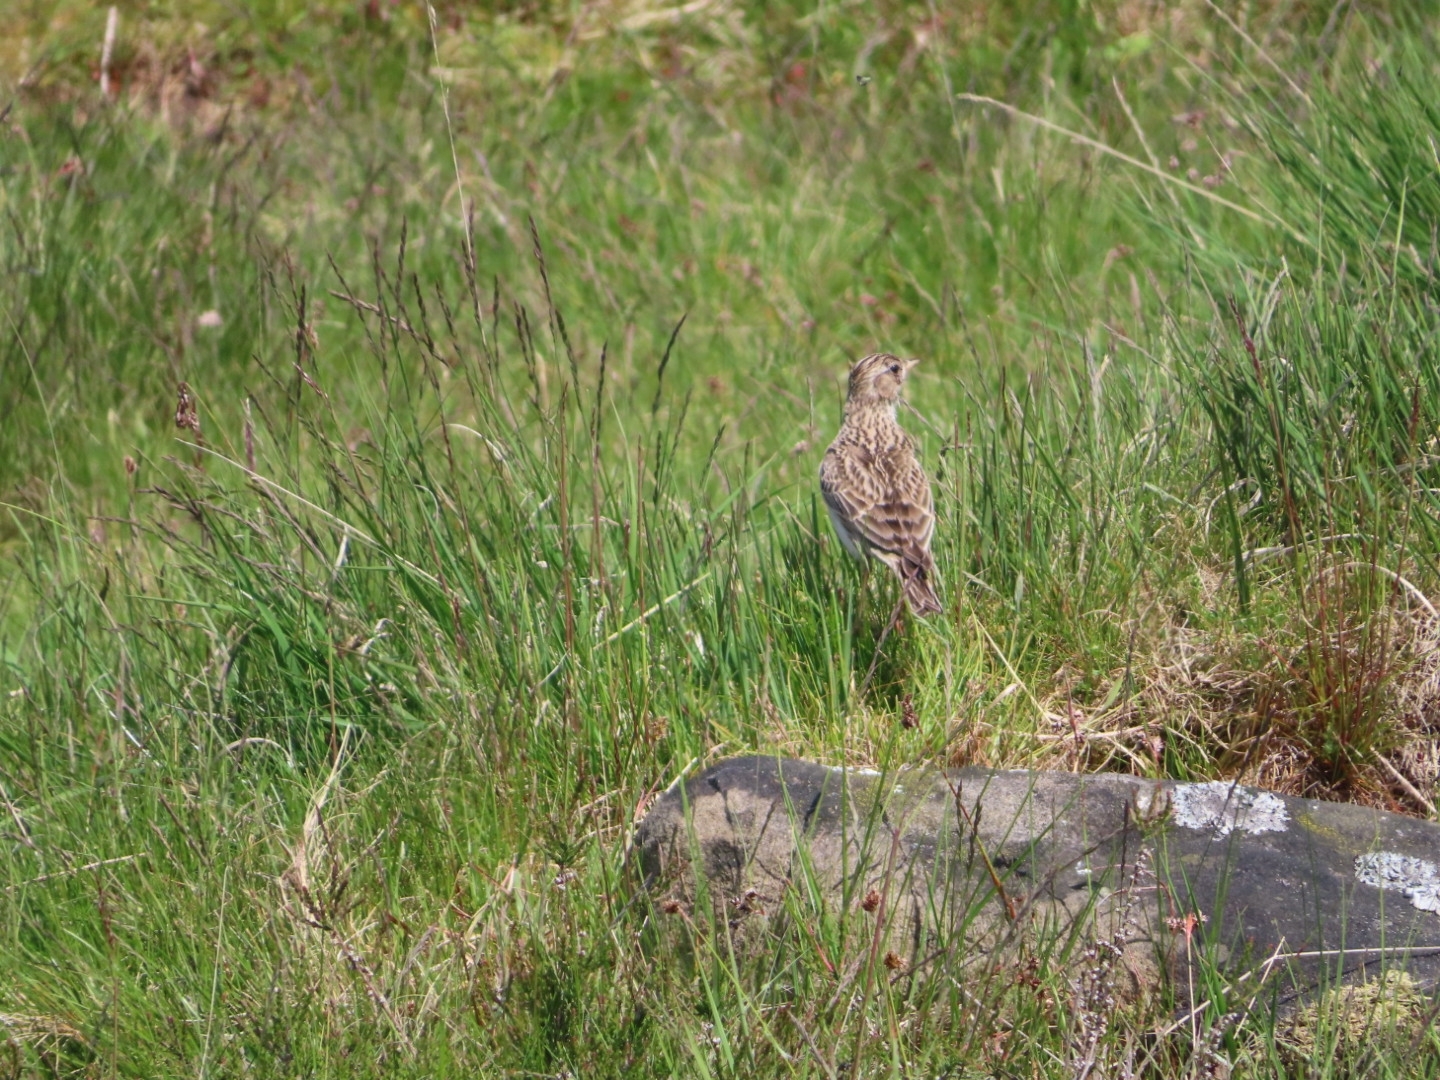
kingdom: Animalia
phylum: Chordata
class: Aves
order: Passeriformes
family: Alaudidae
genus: Alauda
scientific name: Alauda arvensis
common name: Eurasian skylark
